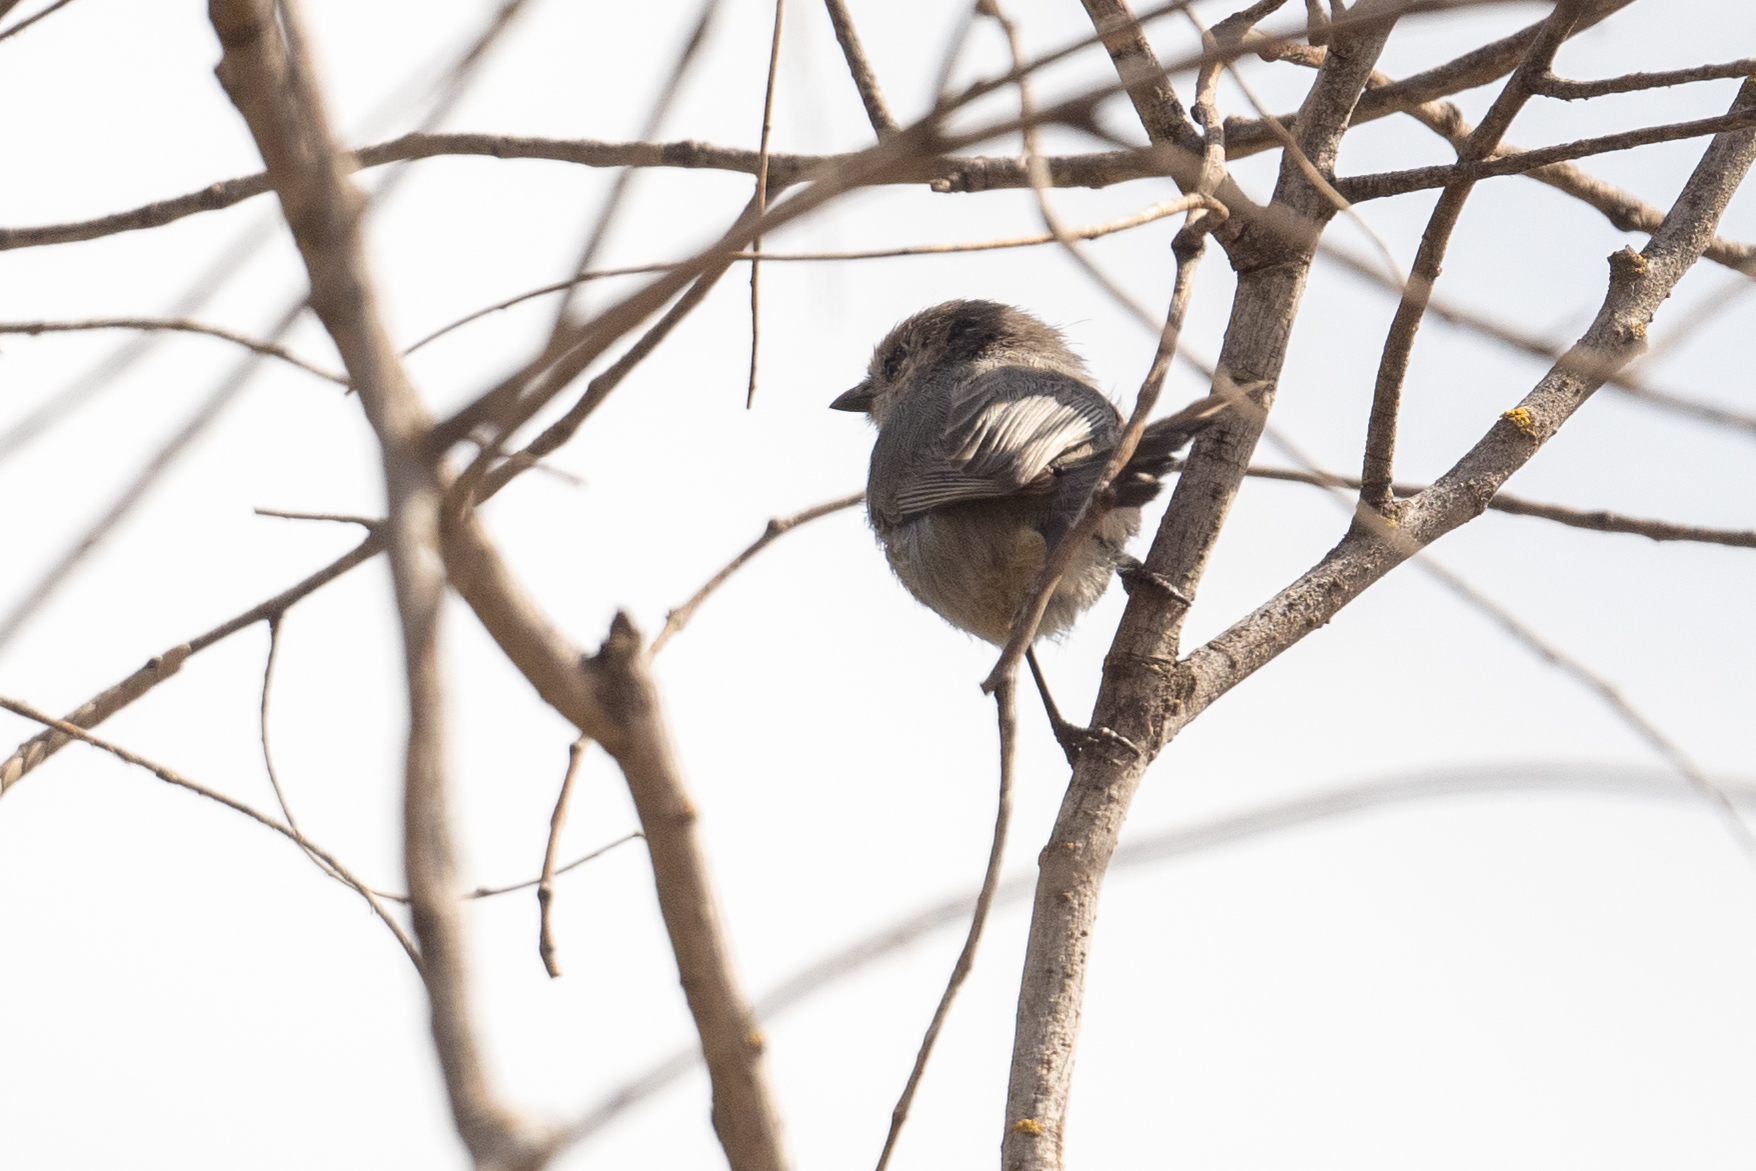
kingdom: Animalia
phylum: Chordata
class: Aves
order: Passeriformes
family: Aegithalidae
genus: Psaltriparus
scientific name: Psaltriparus minimus
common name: American bushtit
